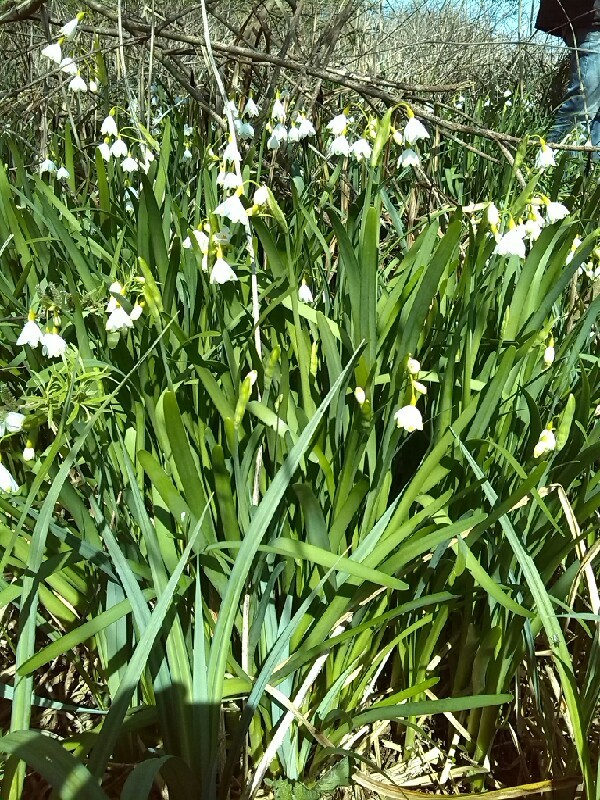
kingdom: Plantae
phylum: Tracheophyta
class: Liliopsida
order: Asparagales
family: Amaryllidaceae
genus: Leucojum
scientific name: Leucojum aestivum
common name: Summer snowflake
